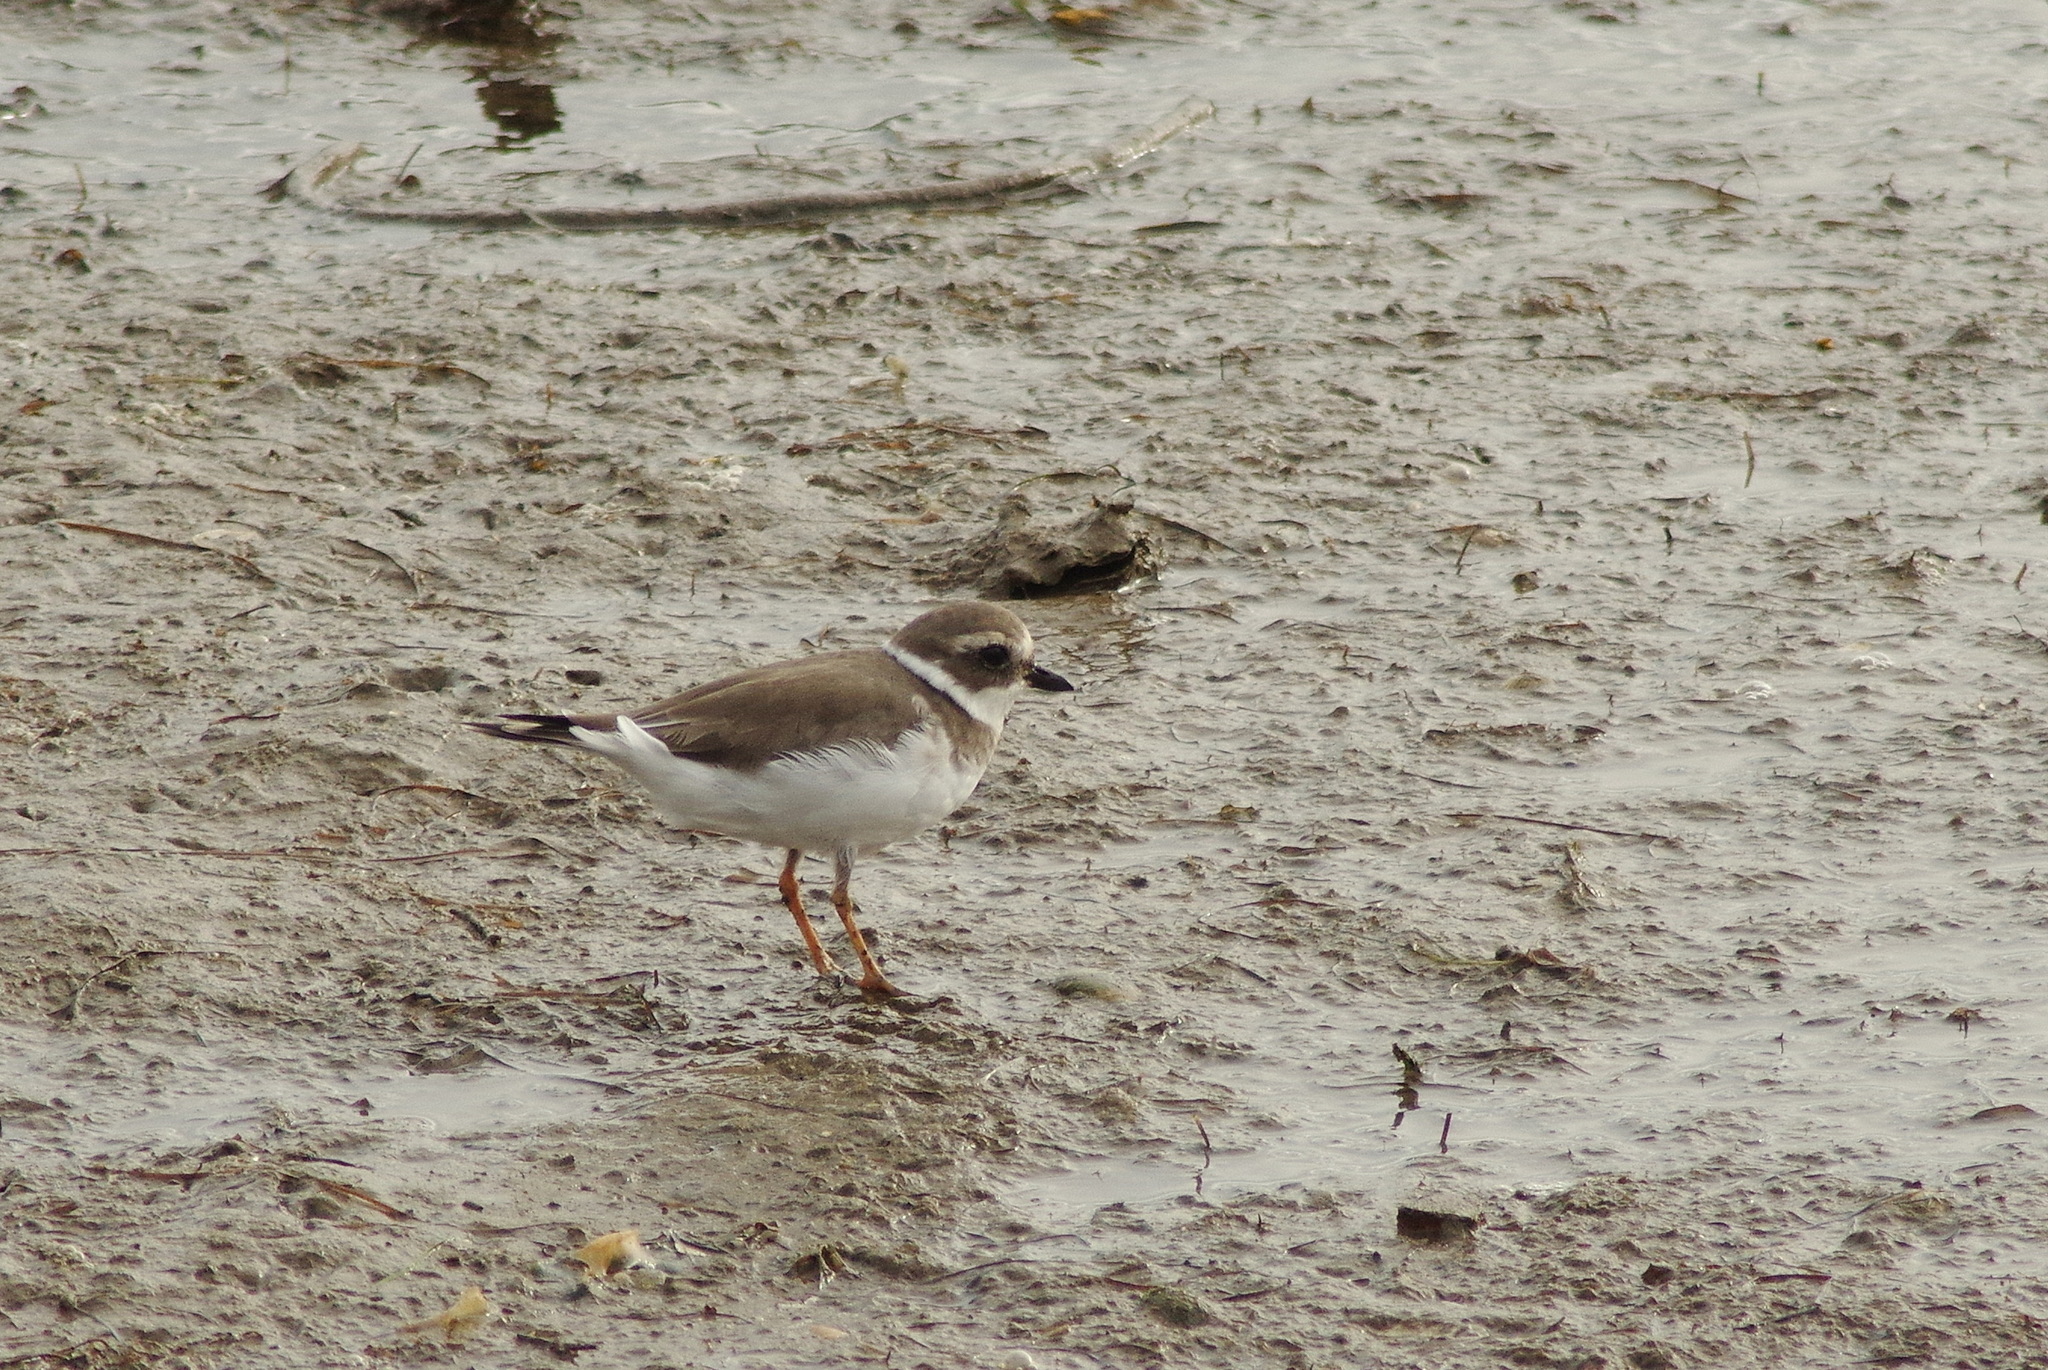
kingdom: Animalia
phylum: Chordata
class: Aves
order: Charadriiformes
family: Charadriidae
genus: Charadrius
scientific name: Charadrius hiaticula
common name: Common ringed plover
